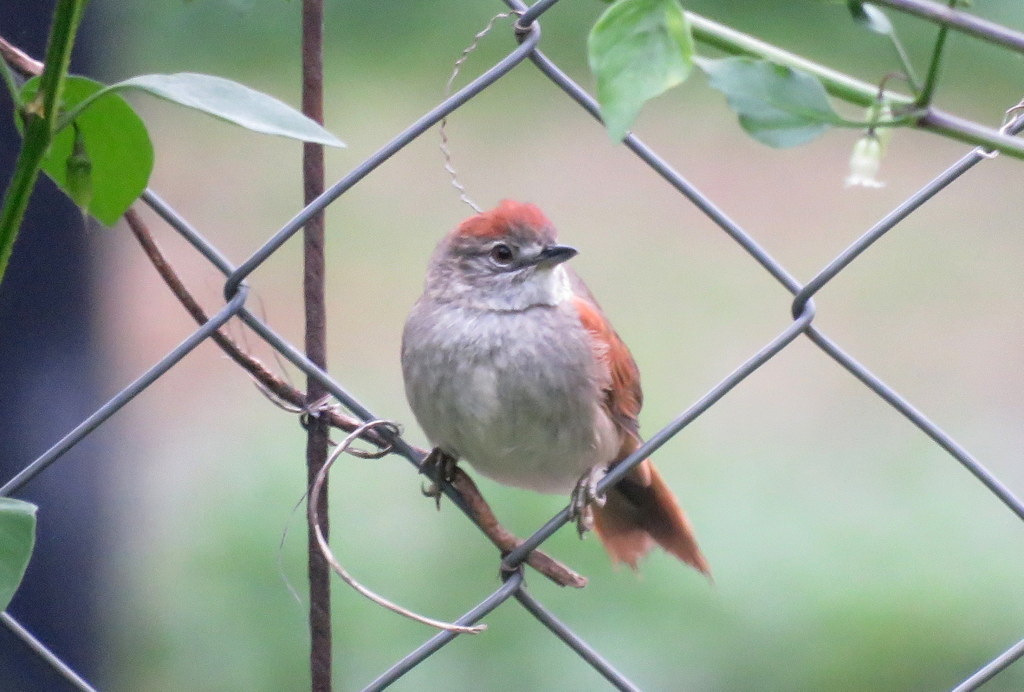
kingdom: Animalia
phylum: Chordata
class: Aves
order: Passeriformes
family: Furnariidae
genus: Synallaxis
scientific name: Synallaxis albescens
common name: Pale-breasted spinetail
